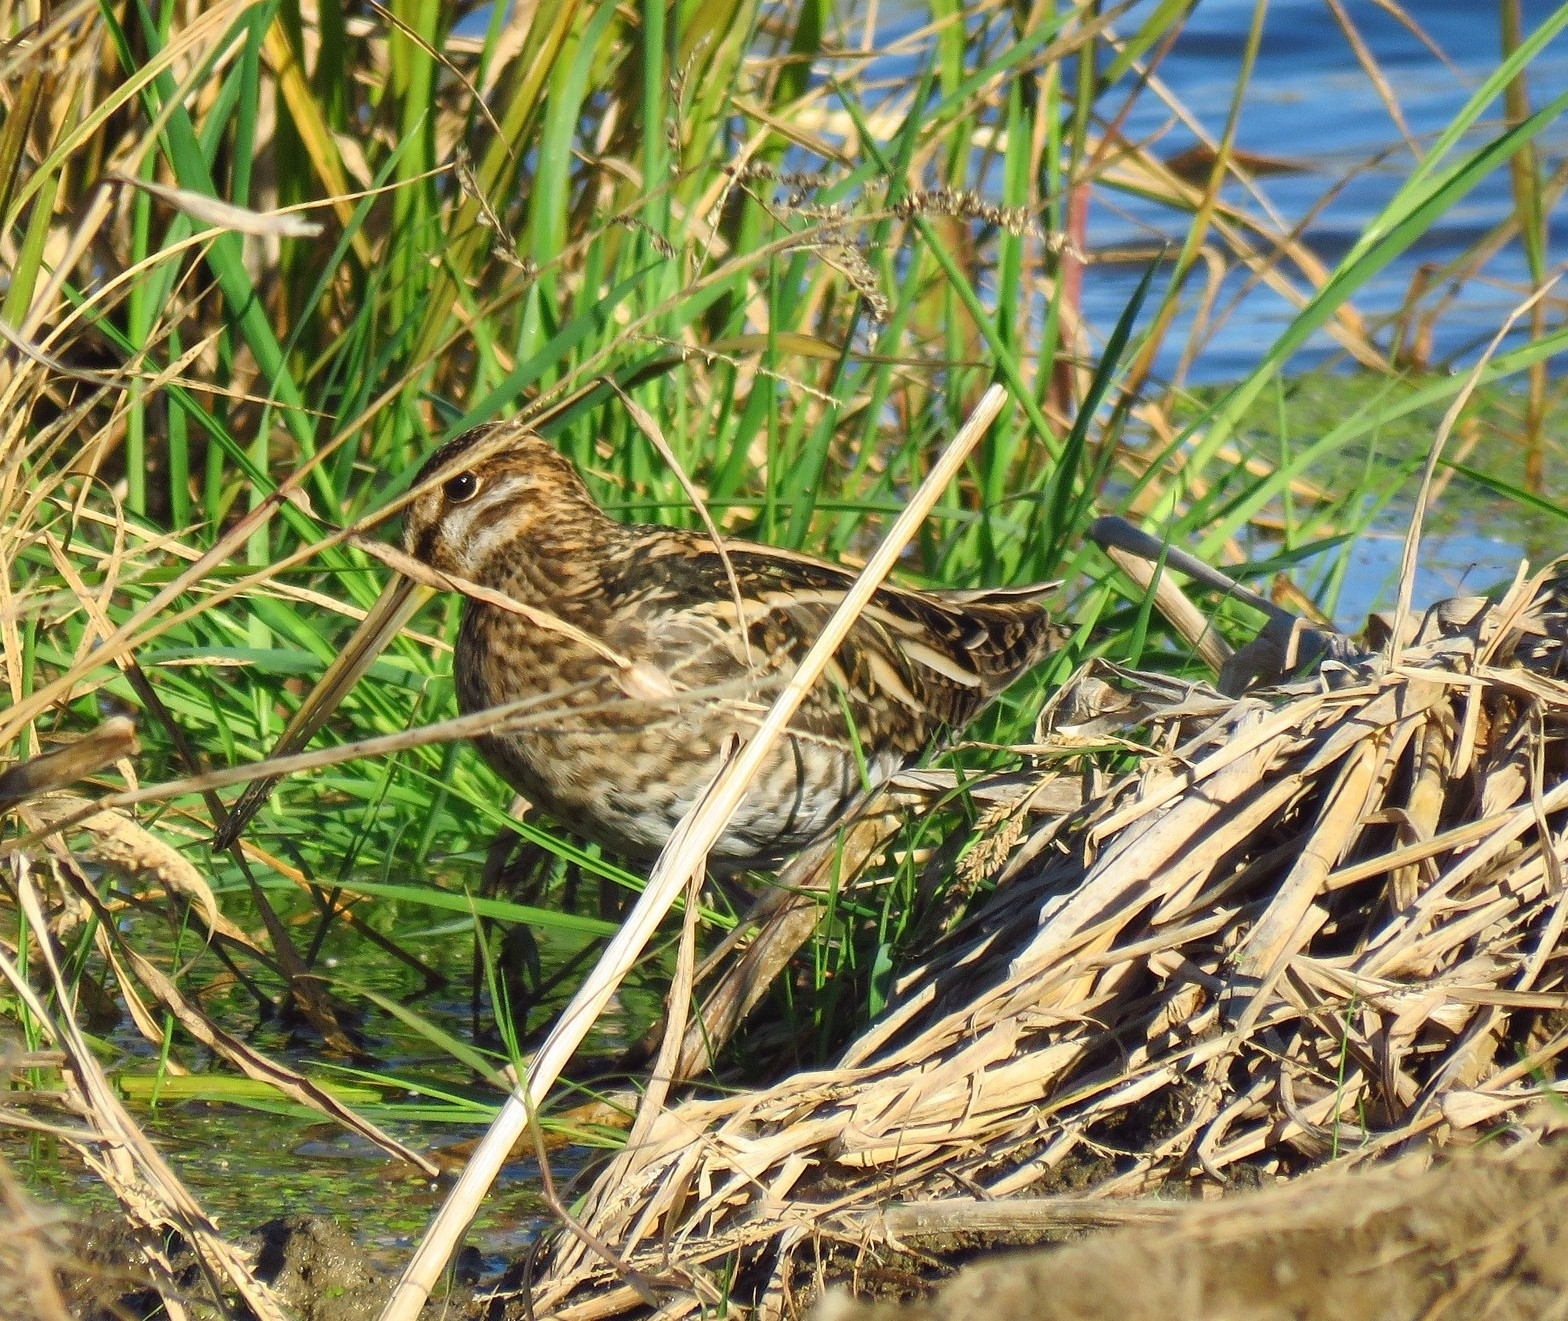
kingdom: Animalia
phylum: Chordata
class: Aves
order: Charadriiformes
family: Scolopacidae
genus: Gallinago
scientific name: Gallinago gallinago
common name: Common snipe
